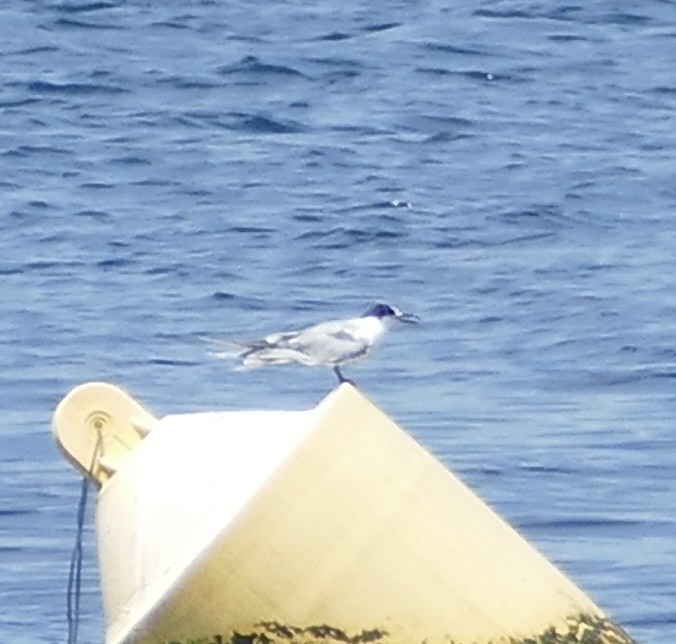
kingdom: Animalia
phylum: Chordata
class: Aves
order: Charadriiformes
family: Laridae
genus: Sterna
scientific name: Sterna hirundo
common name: Common tern
